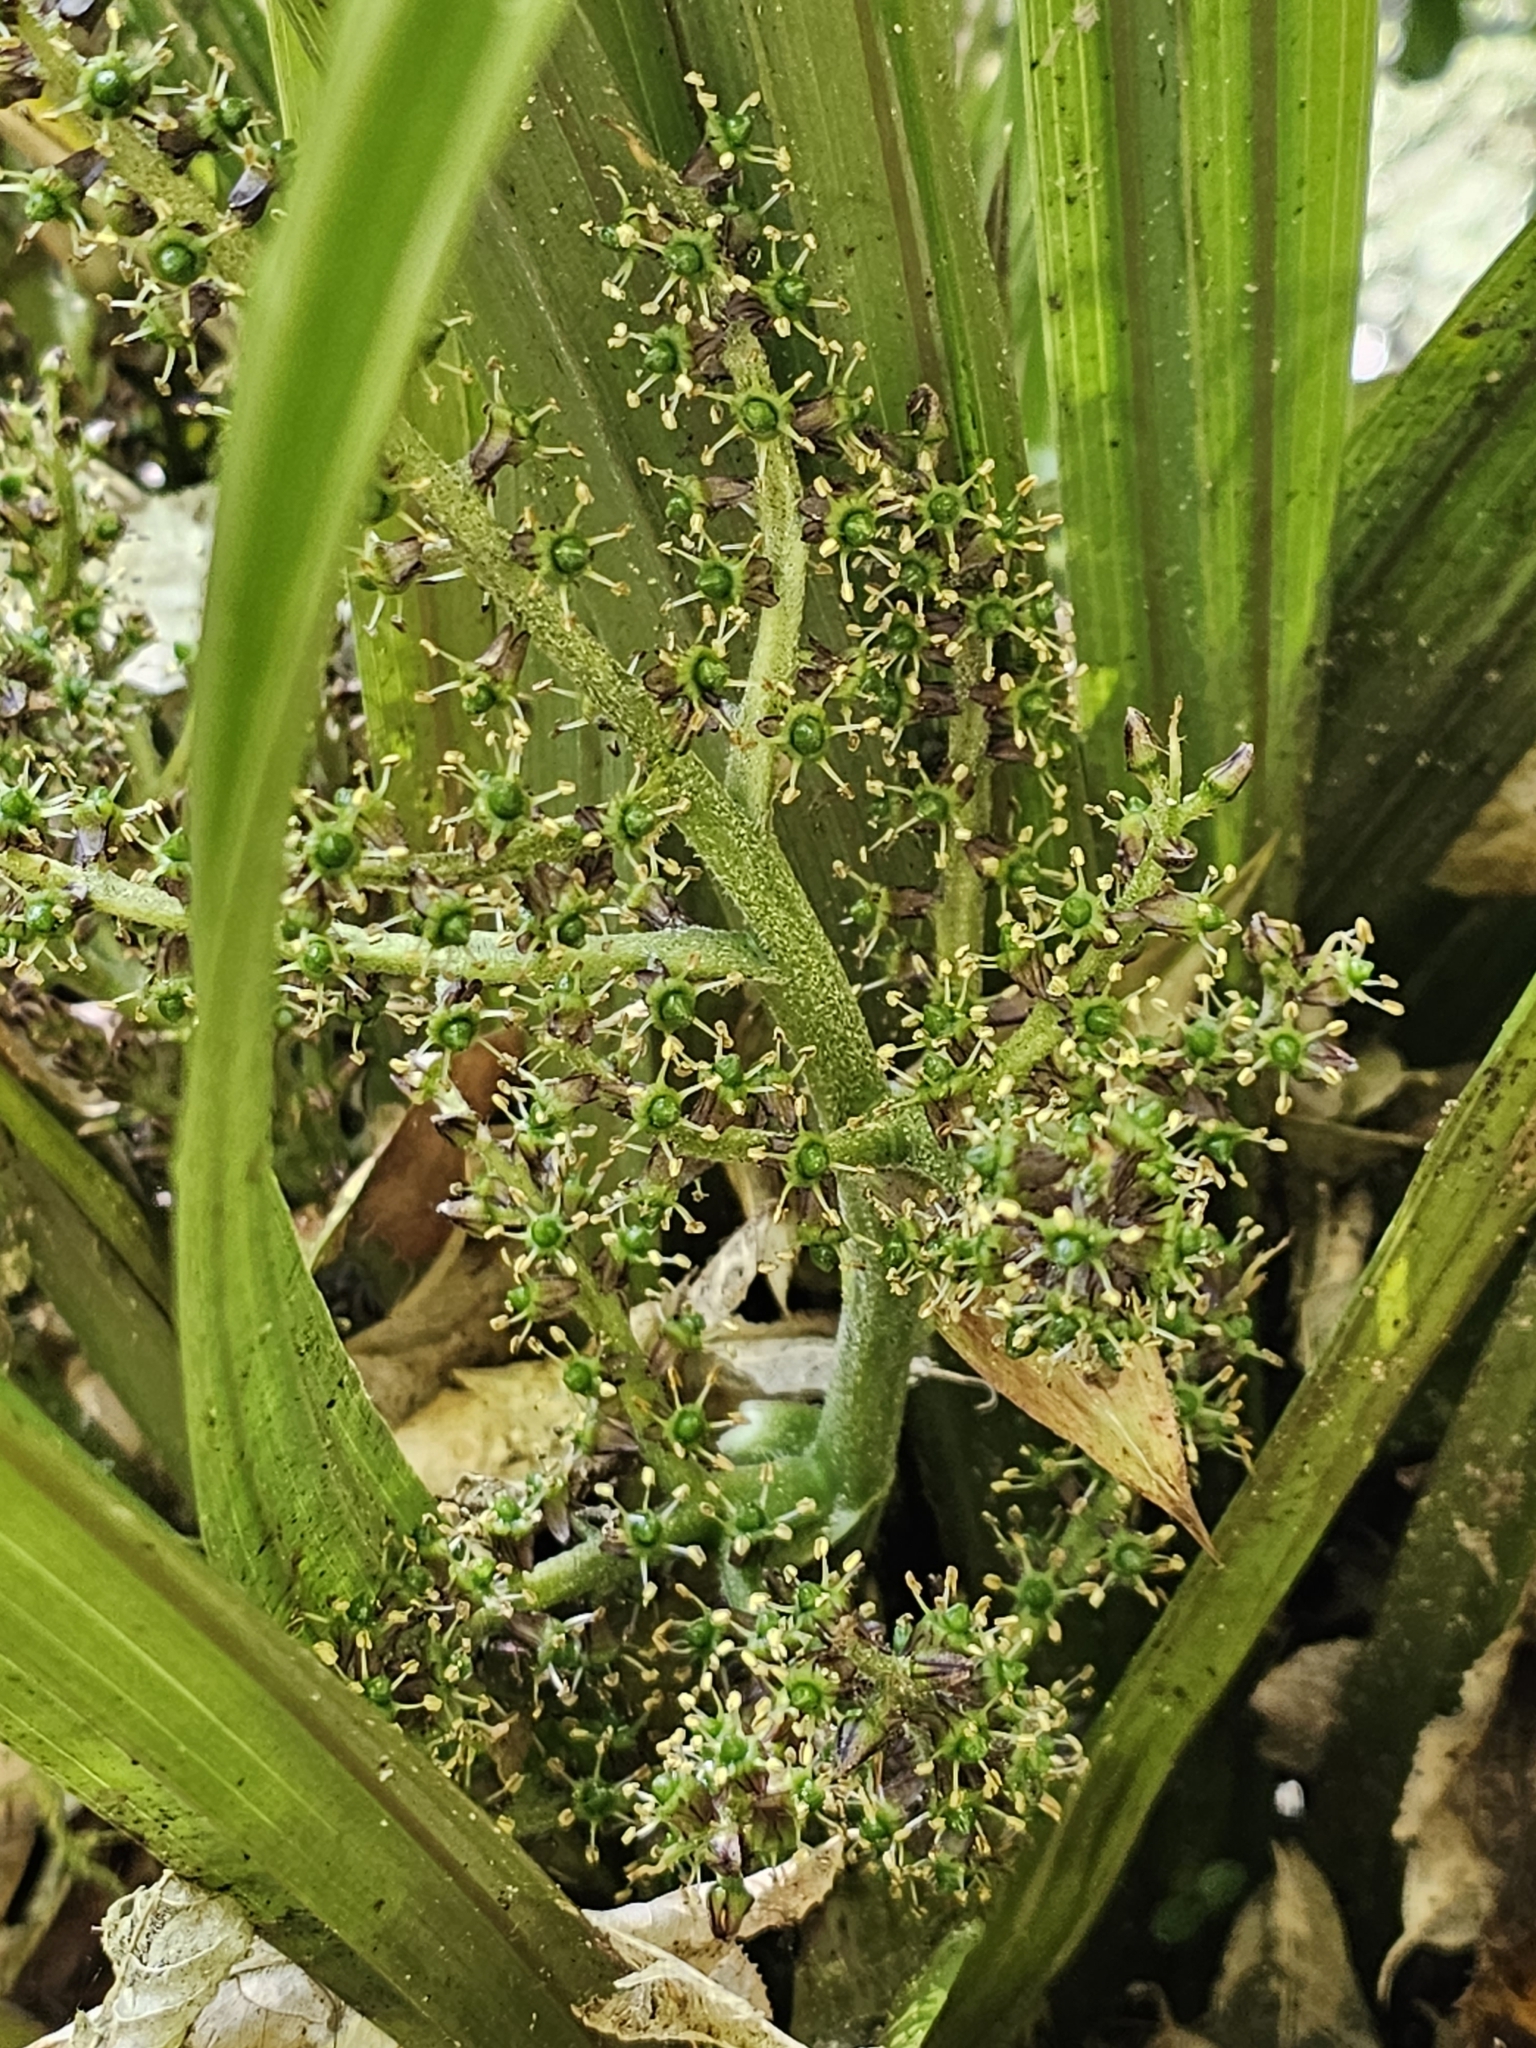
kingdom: Plantae
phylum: Tracheophyta
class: Liliopsida
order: Asparagales
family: Asteliaceae
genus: Astelia
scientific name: Astelia fragrans
